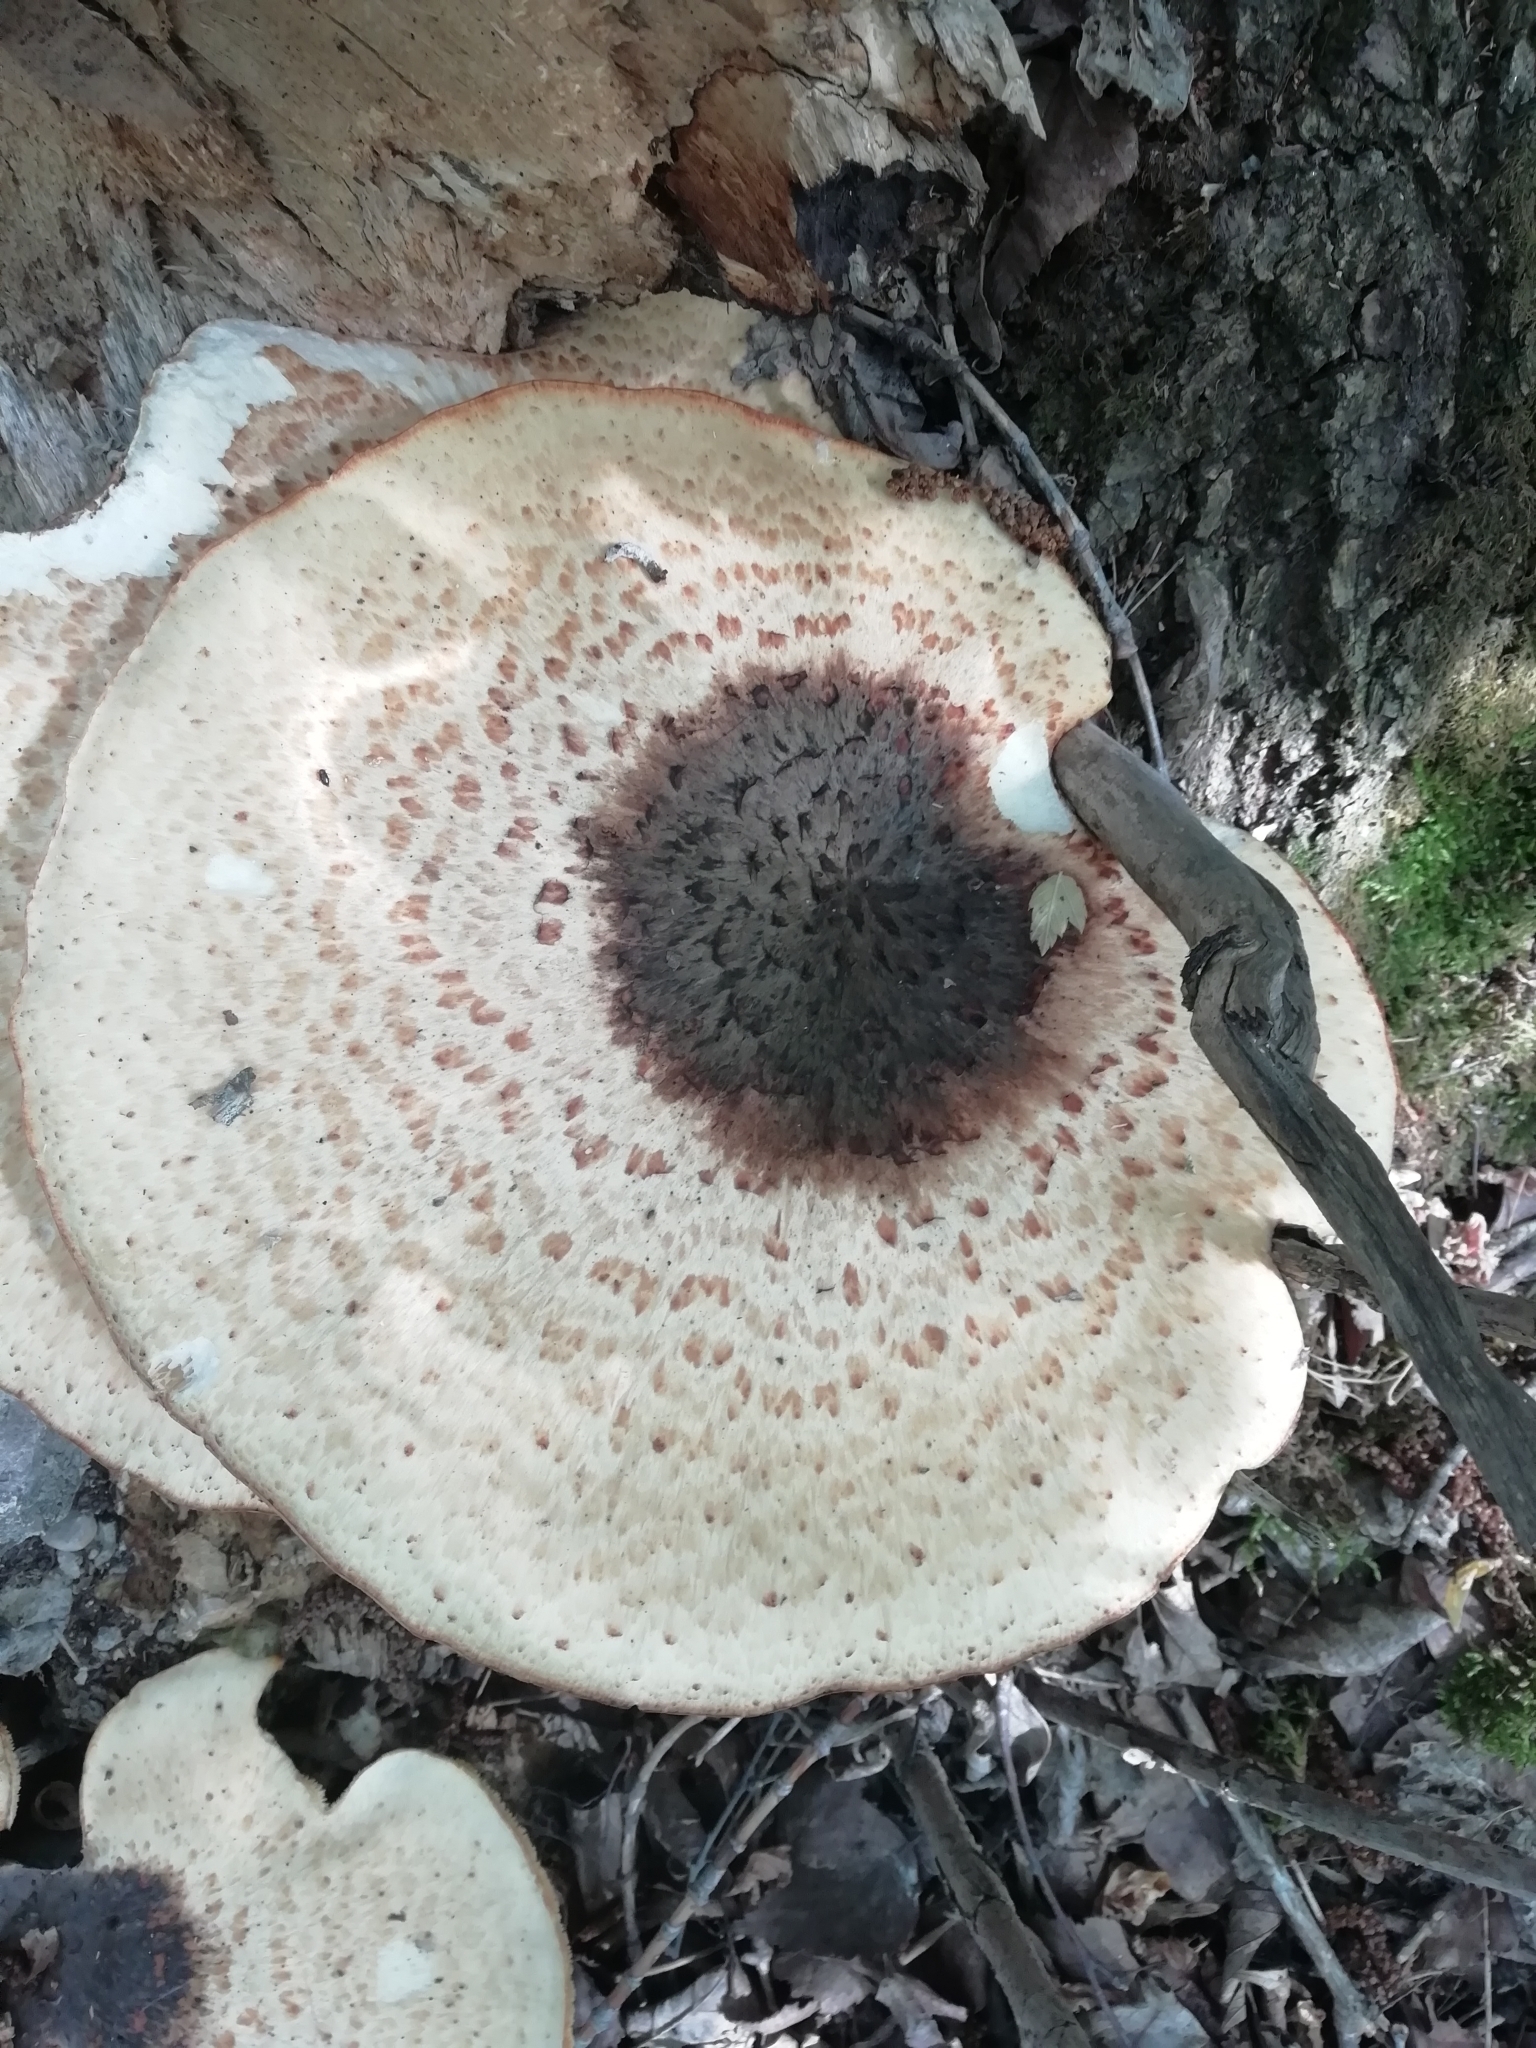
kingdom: Fungi
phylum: Basidiomycota
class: Agaricomycetes
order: Polyporales
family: Polyporaceae
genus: Cerioporus
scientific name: Cerioporus squamosus
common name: Dryad's saddle
